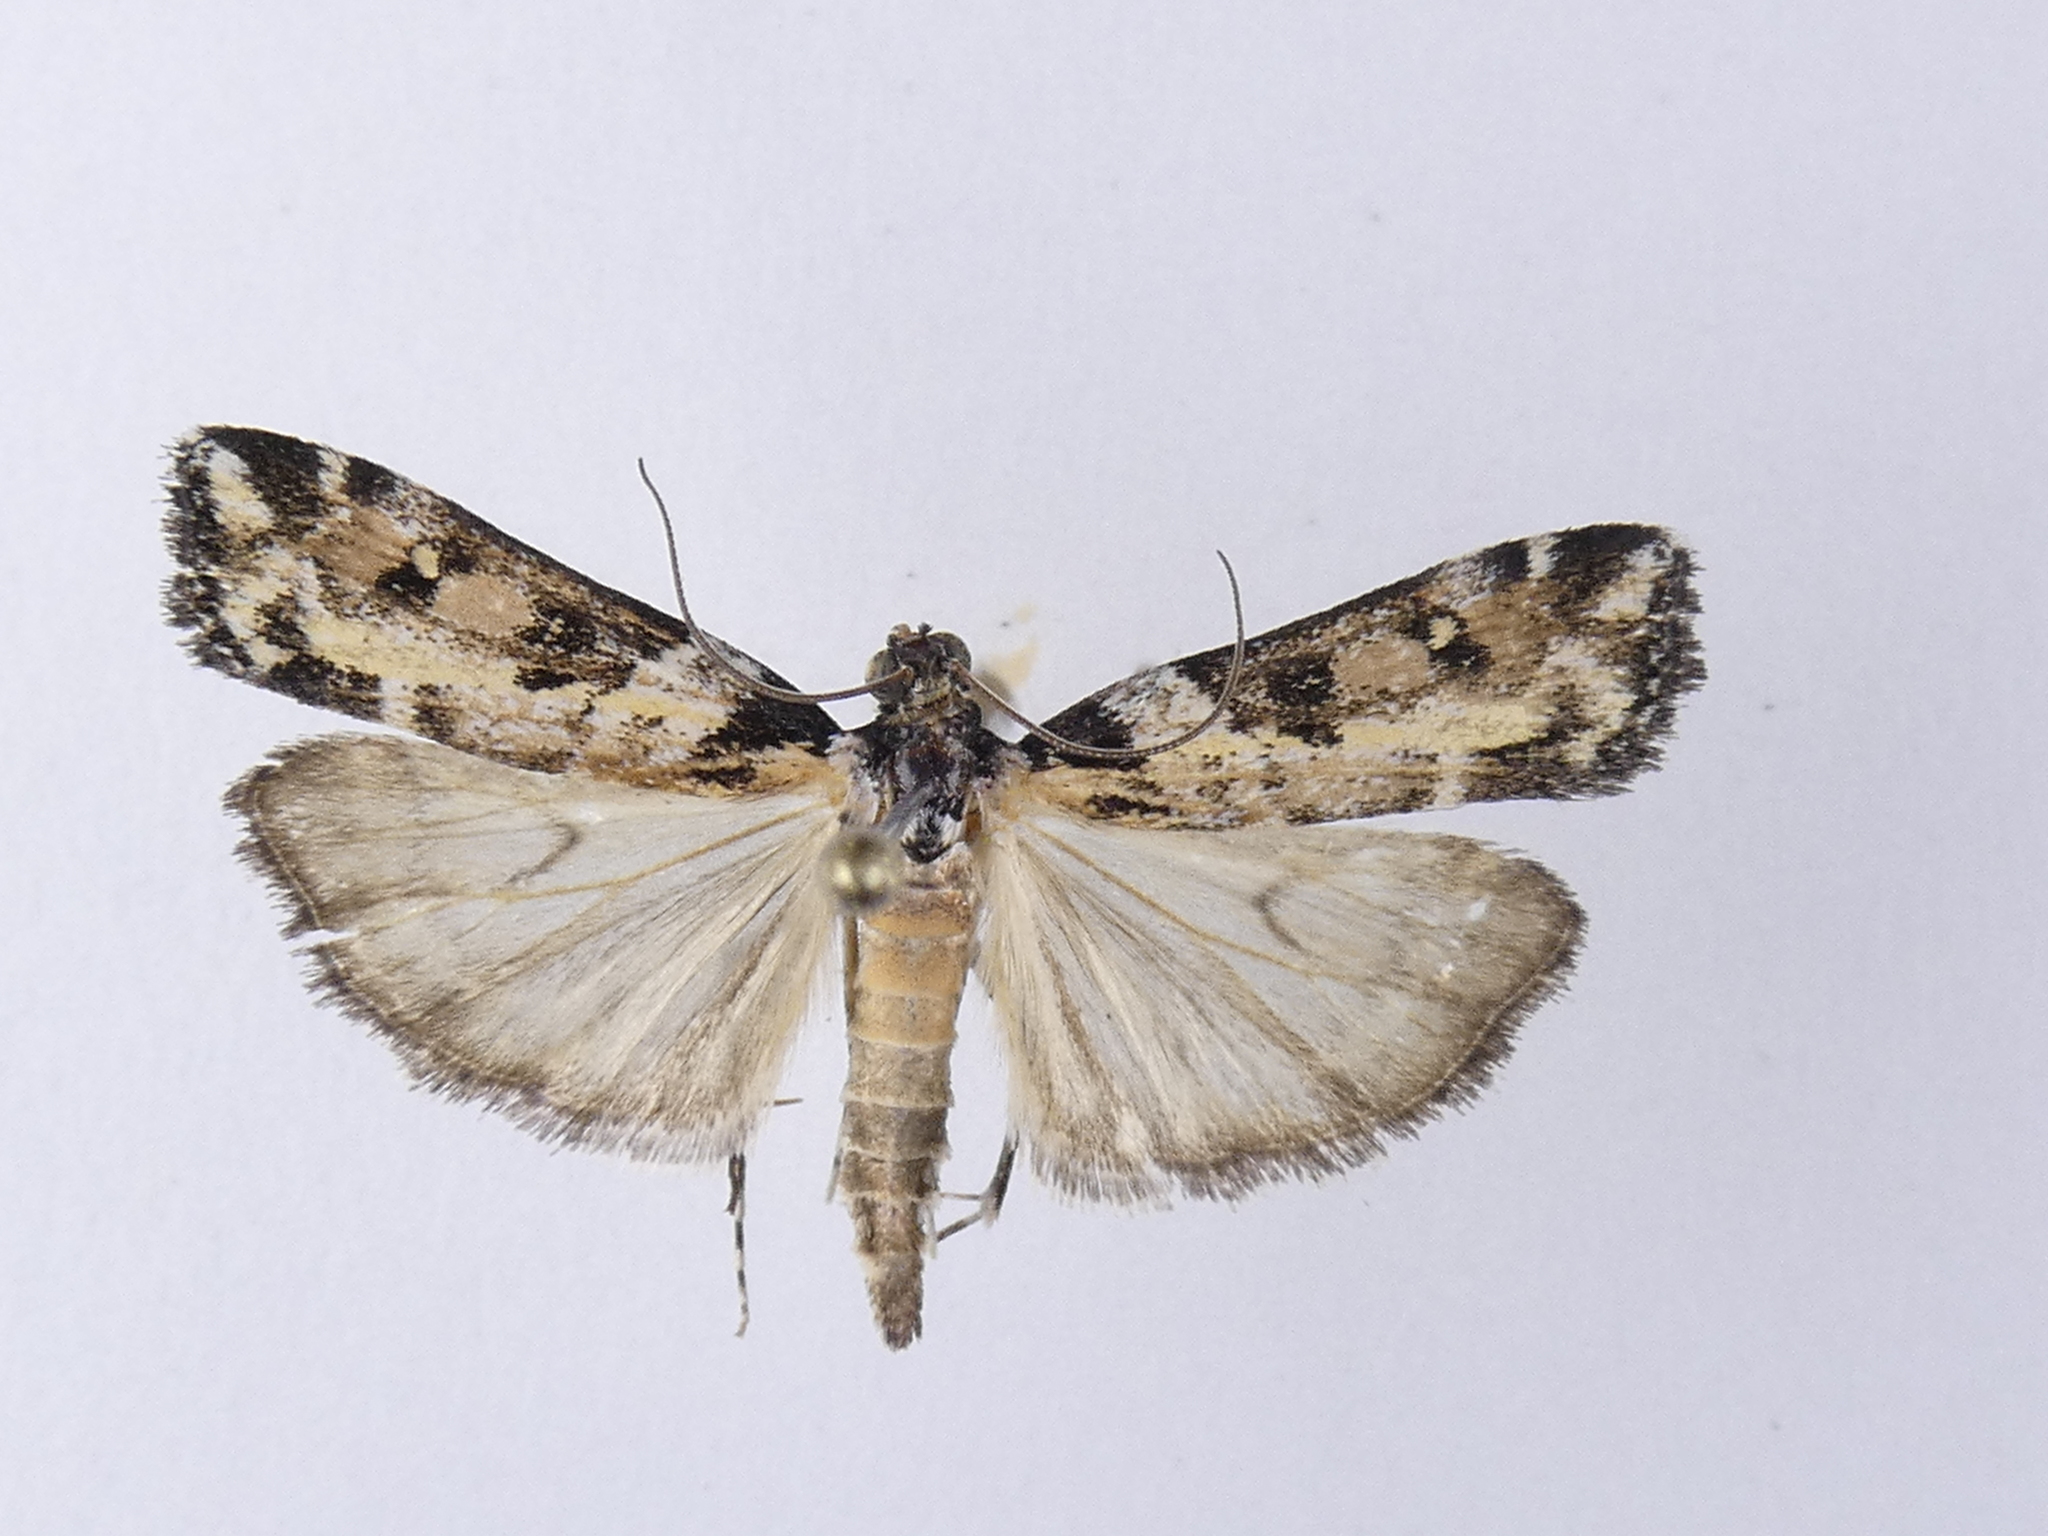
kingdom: Animalia
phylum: Arthropoda
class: Insecta
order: Lepidoptera
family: Crambidae
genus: Eudonia
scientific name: Eudonia diphtheralis
